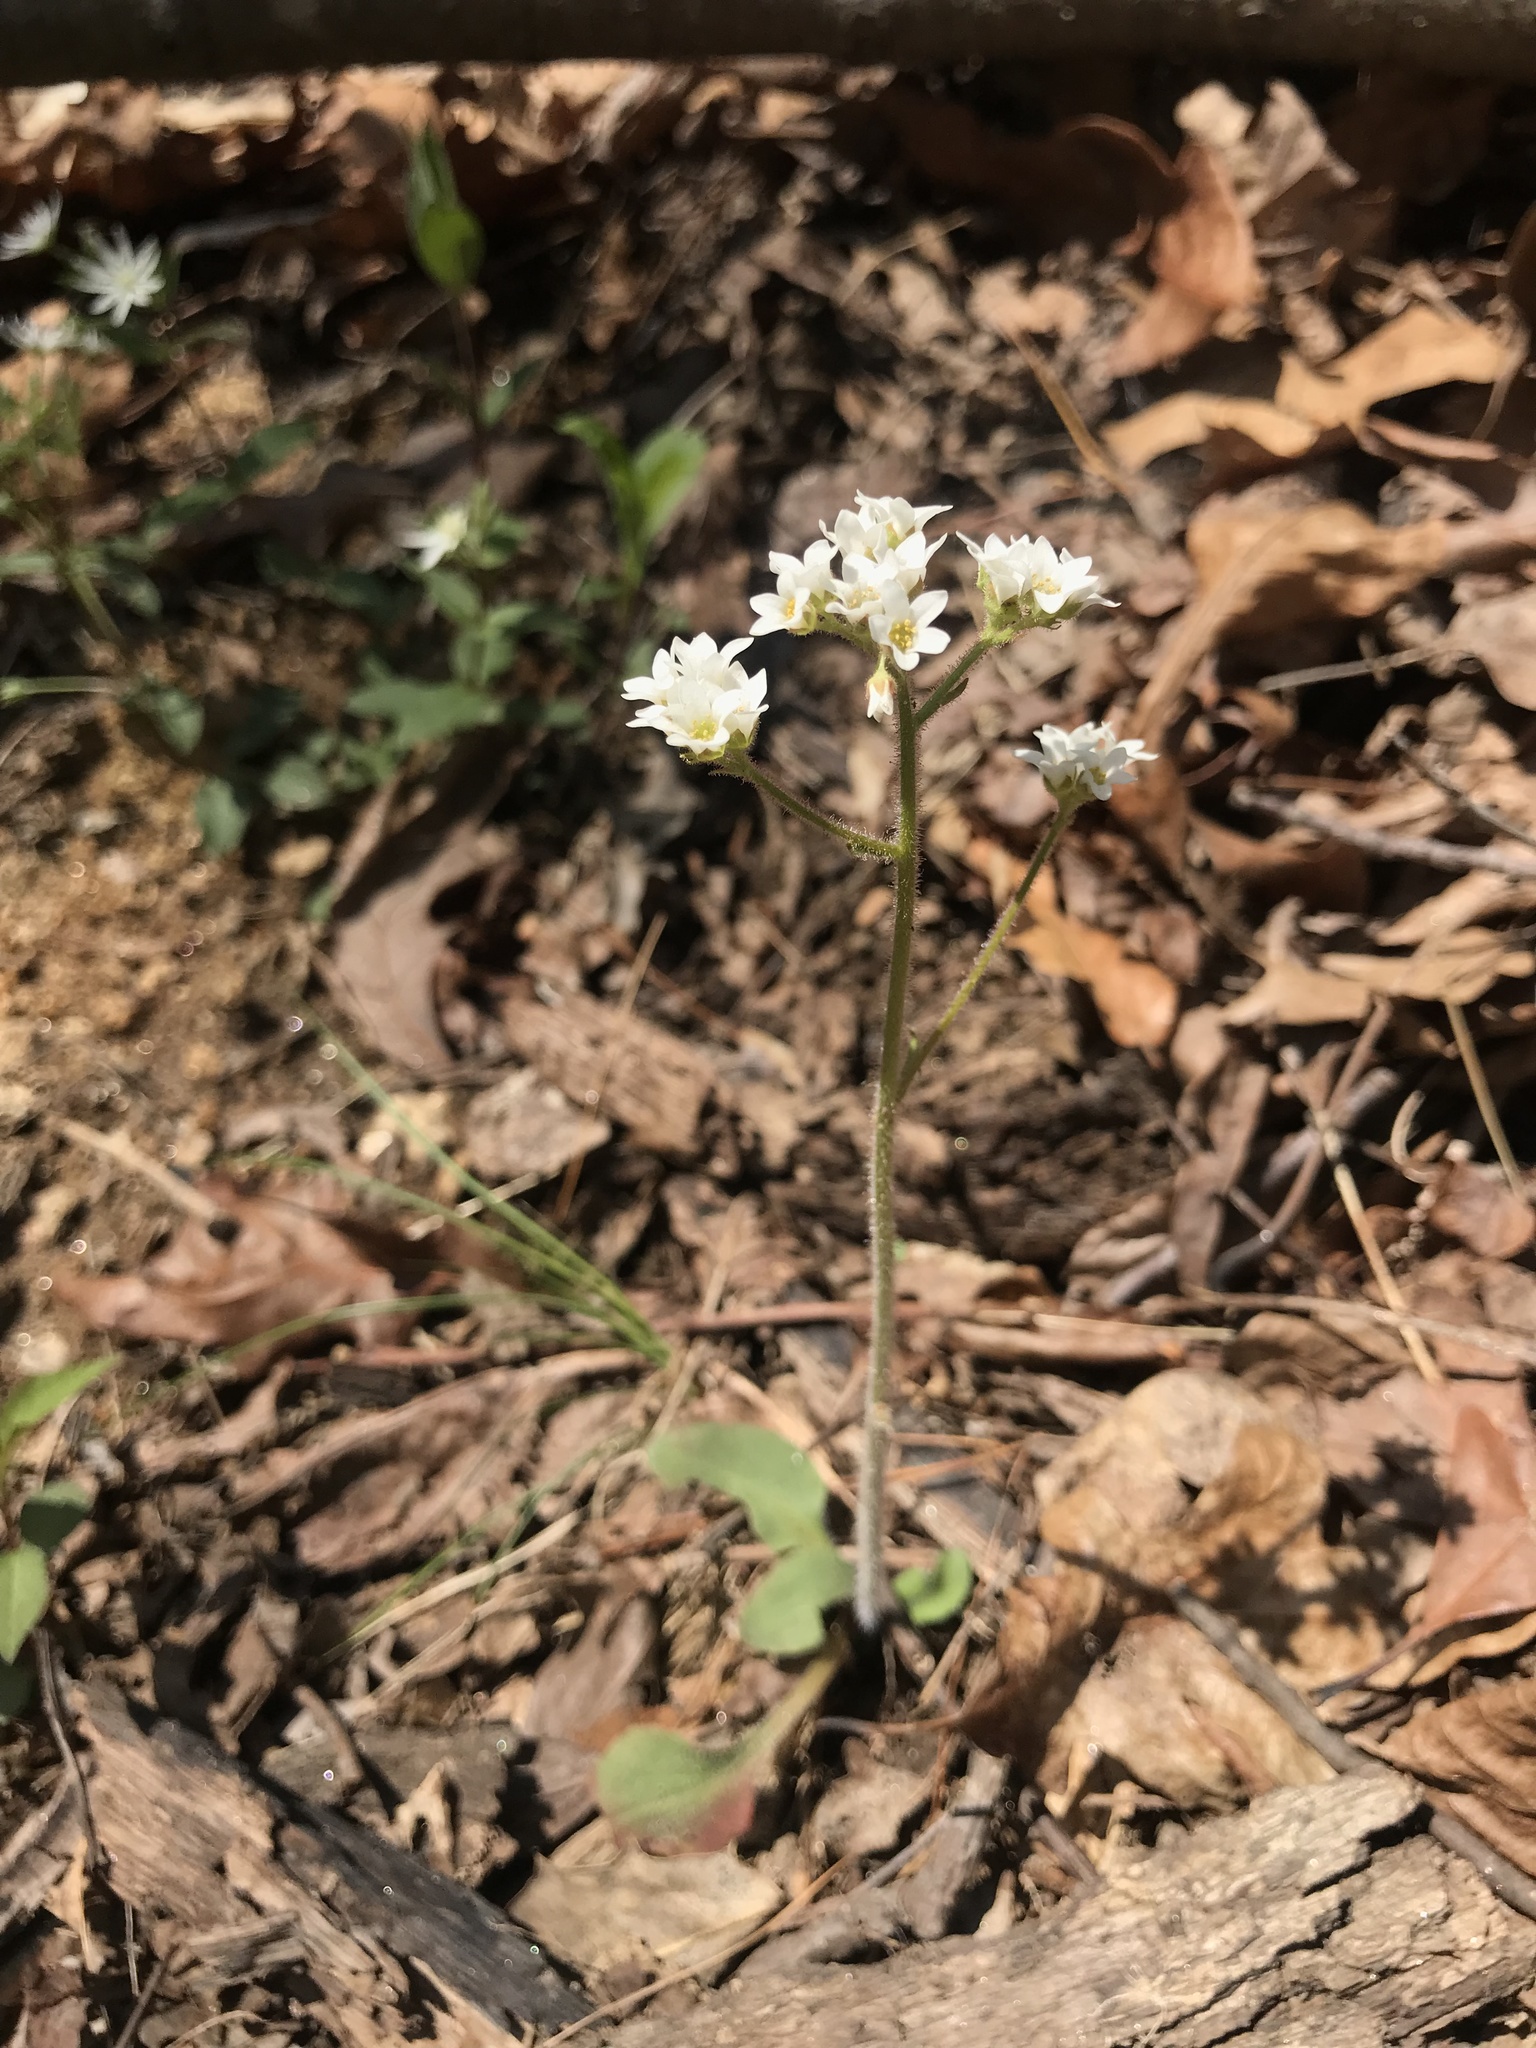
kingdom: Plantae
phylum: Tracheophyta
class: Magnoliopsida
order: Saxifragales
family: Saxifragaceae
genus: Micranthes
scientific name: Micranthes virginiensis
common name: Early saxifrage
